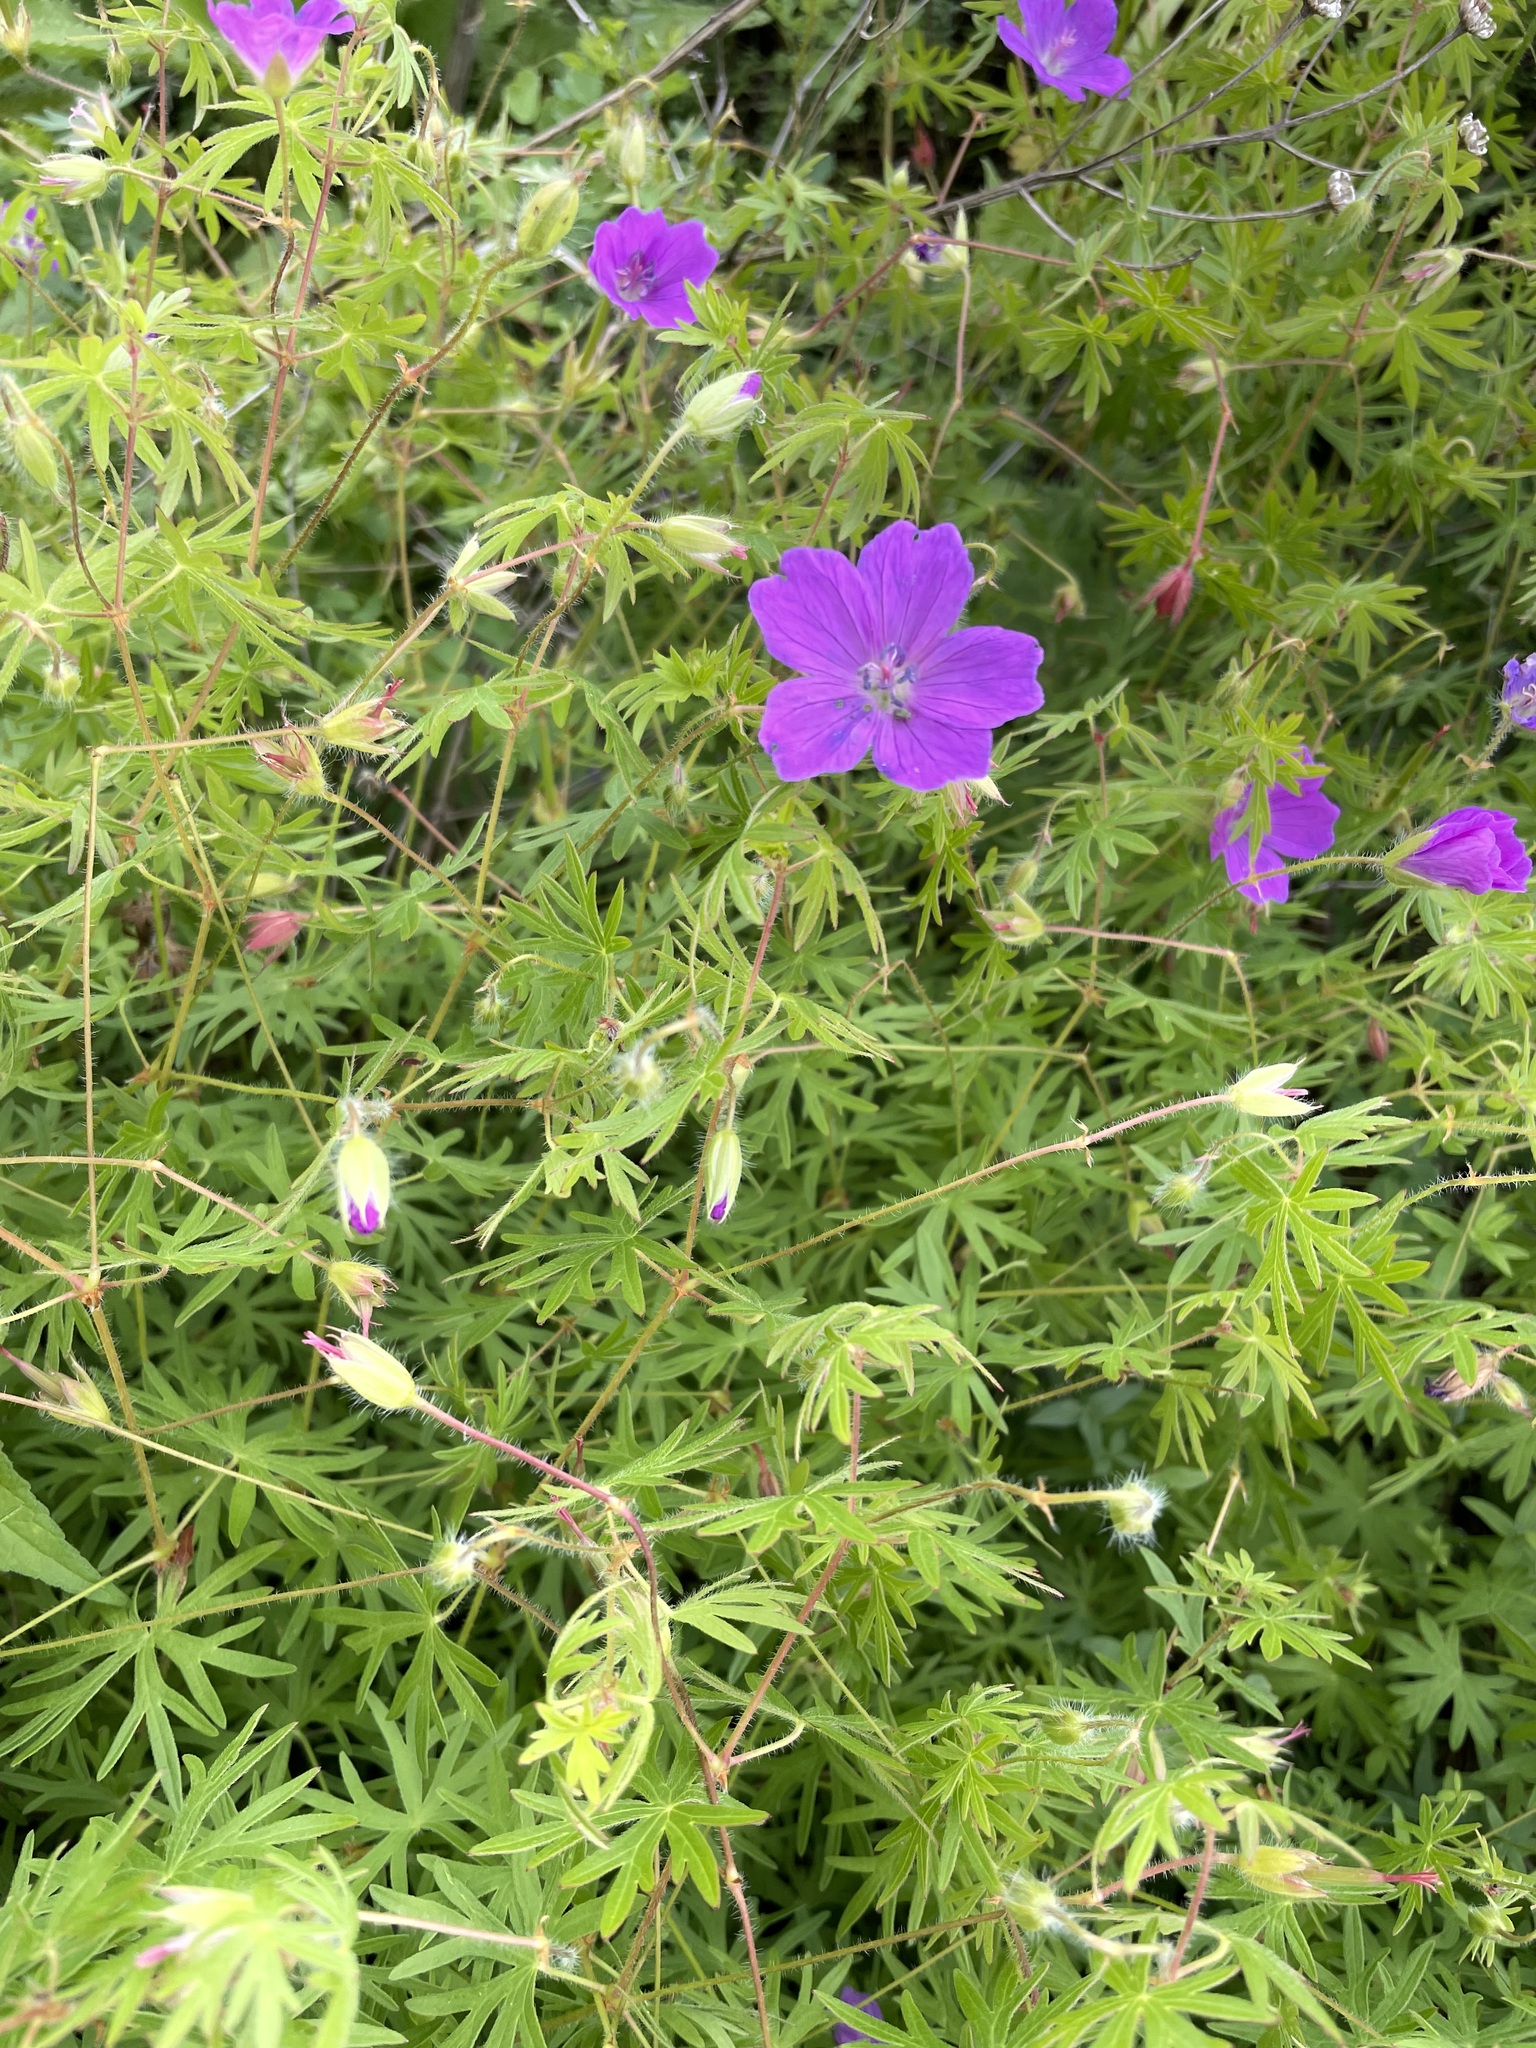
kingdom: Plantae
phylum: Tracheophyta
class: Magnoliopsida
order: Geraniales
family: Geraniaceae
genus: Geranium
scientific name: Geranium sanguineum
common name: Bloody crane's-bill
